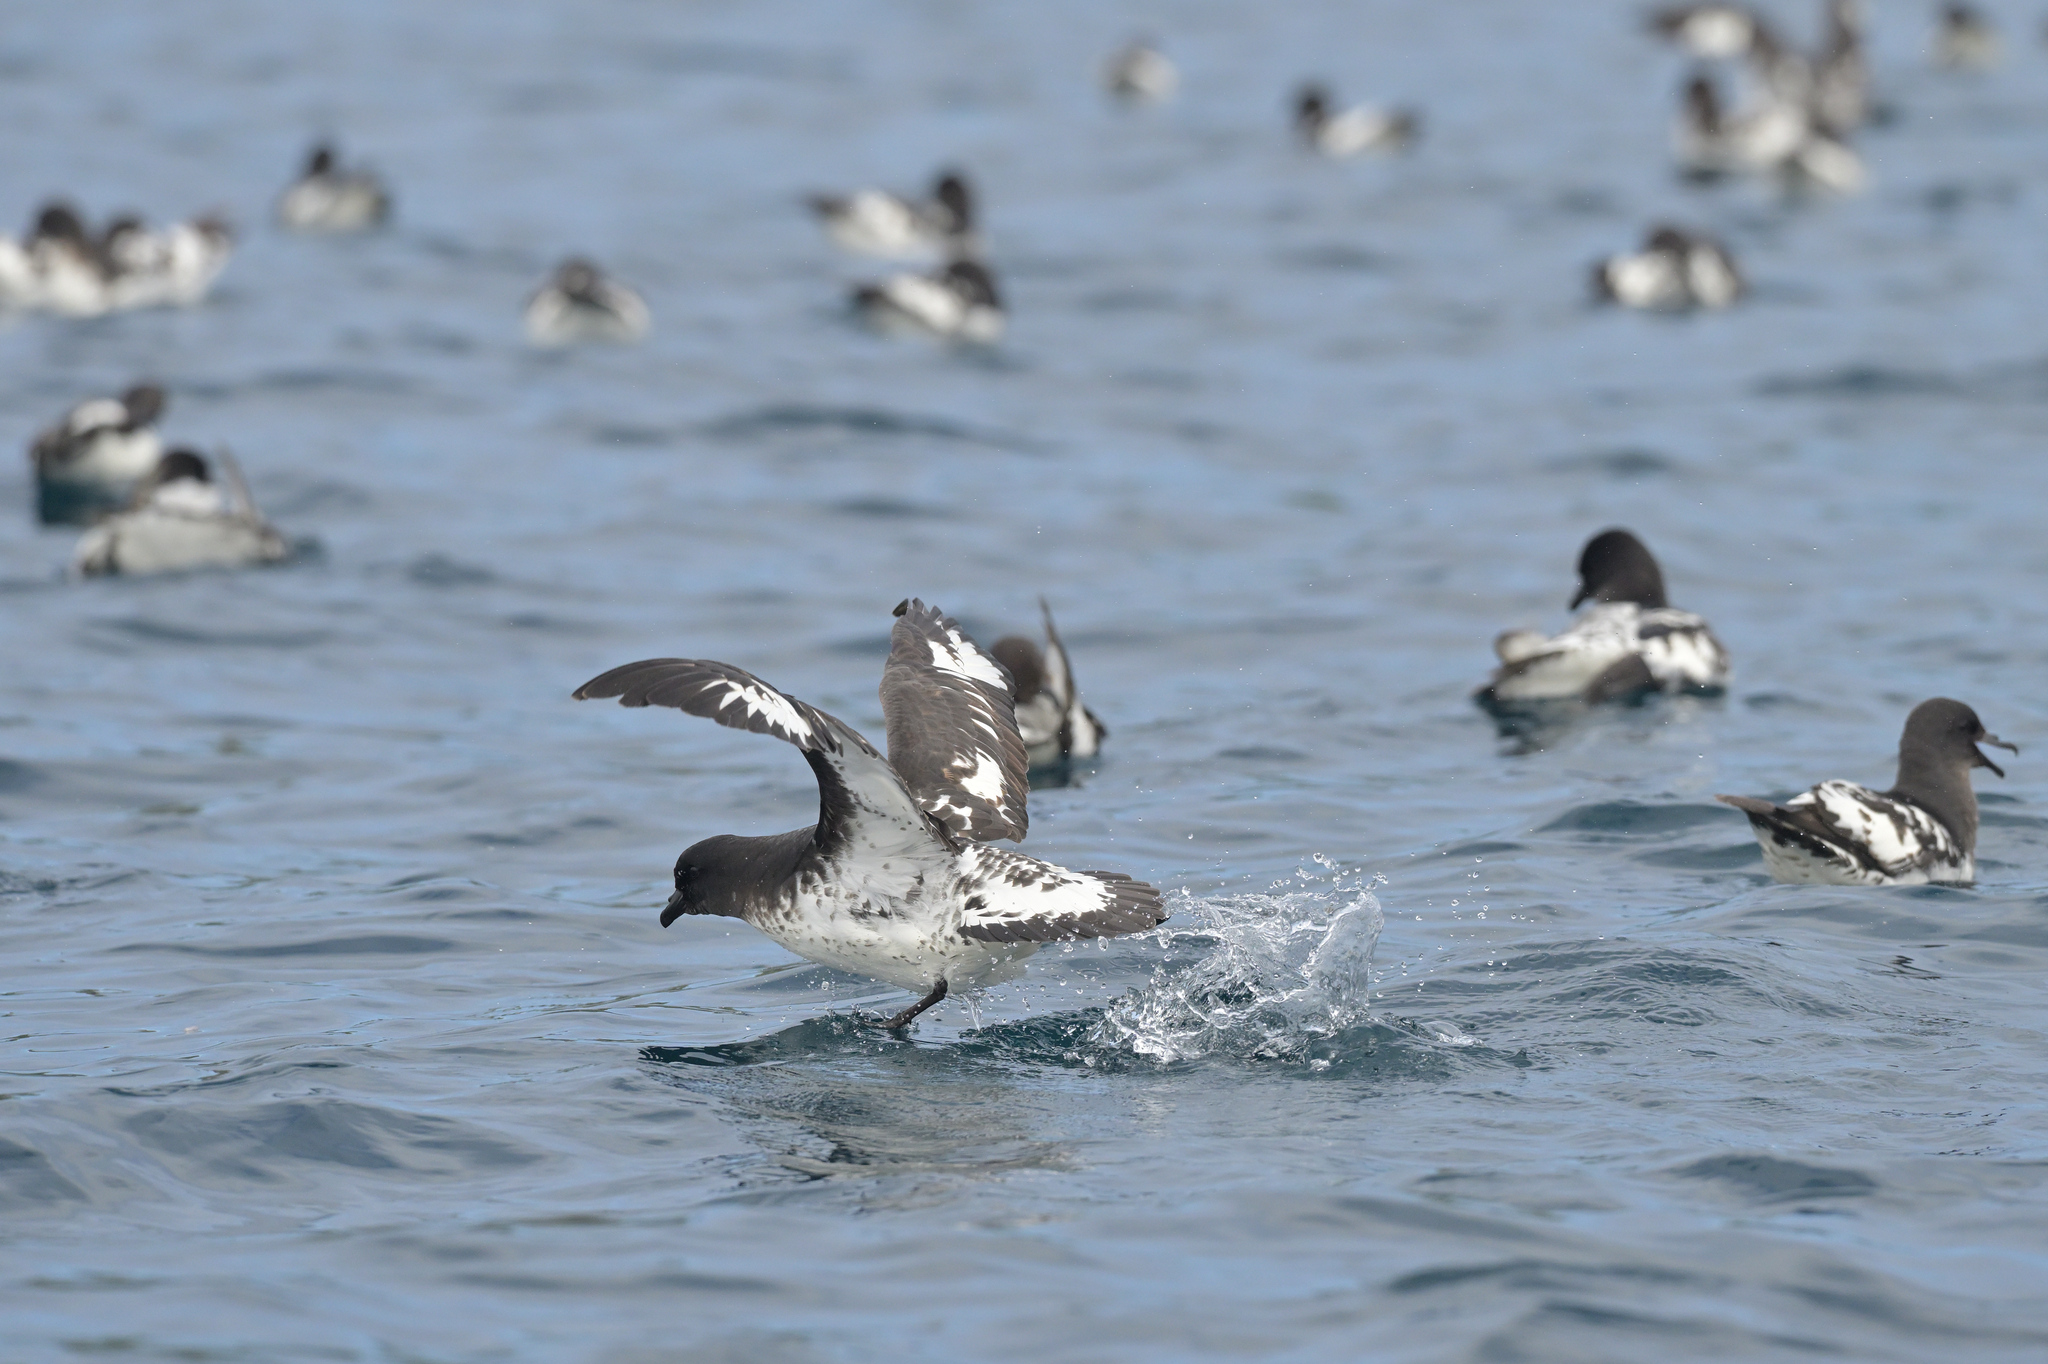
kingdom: Animalia
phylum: Chordata
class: Aves
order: Procellariiformes
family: Procellariidae
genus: Daption
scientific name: Daption capense
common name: Cape petrel
